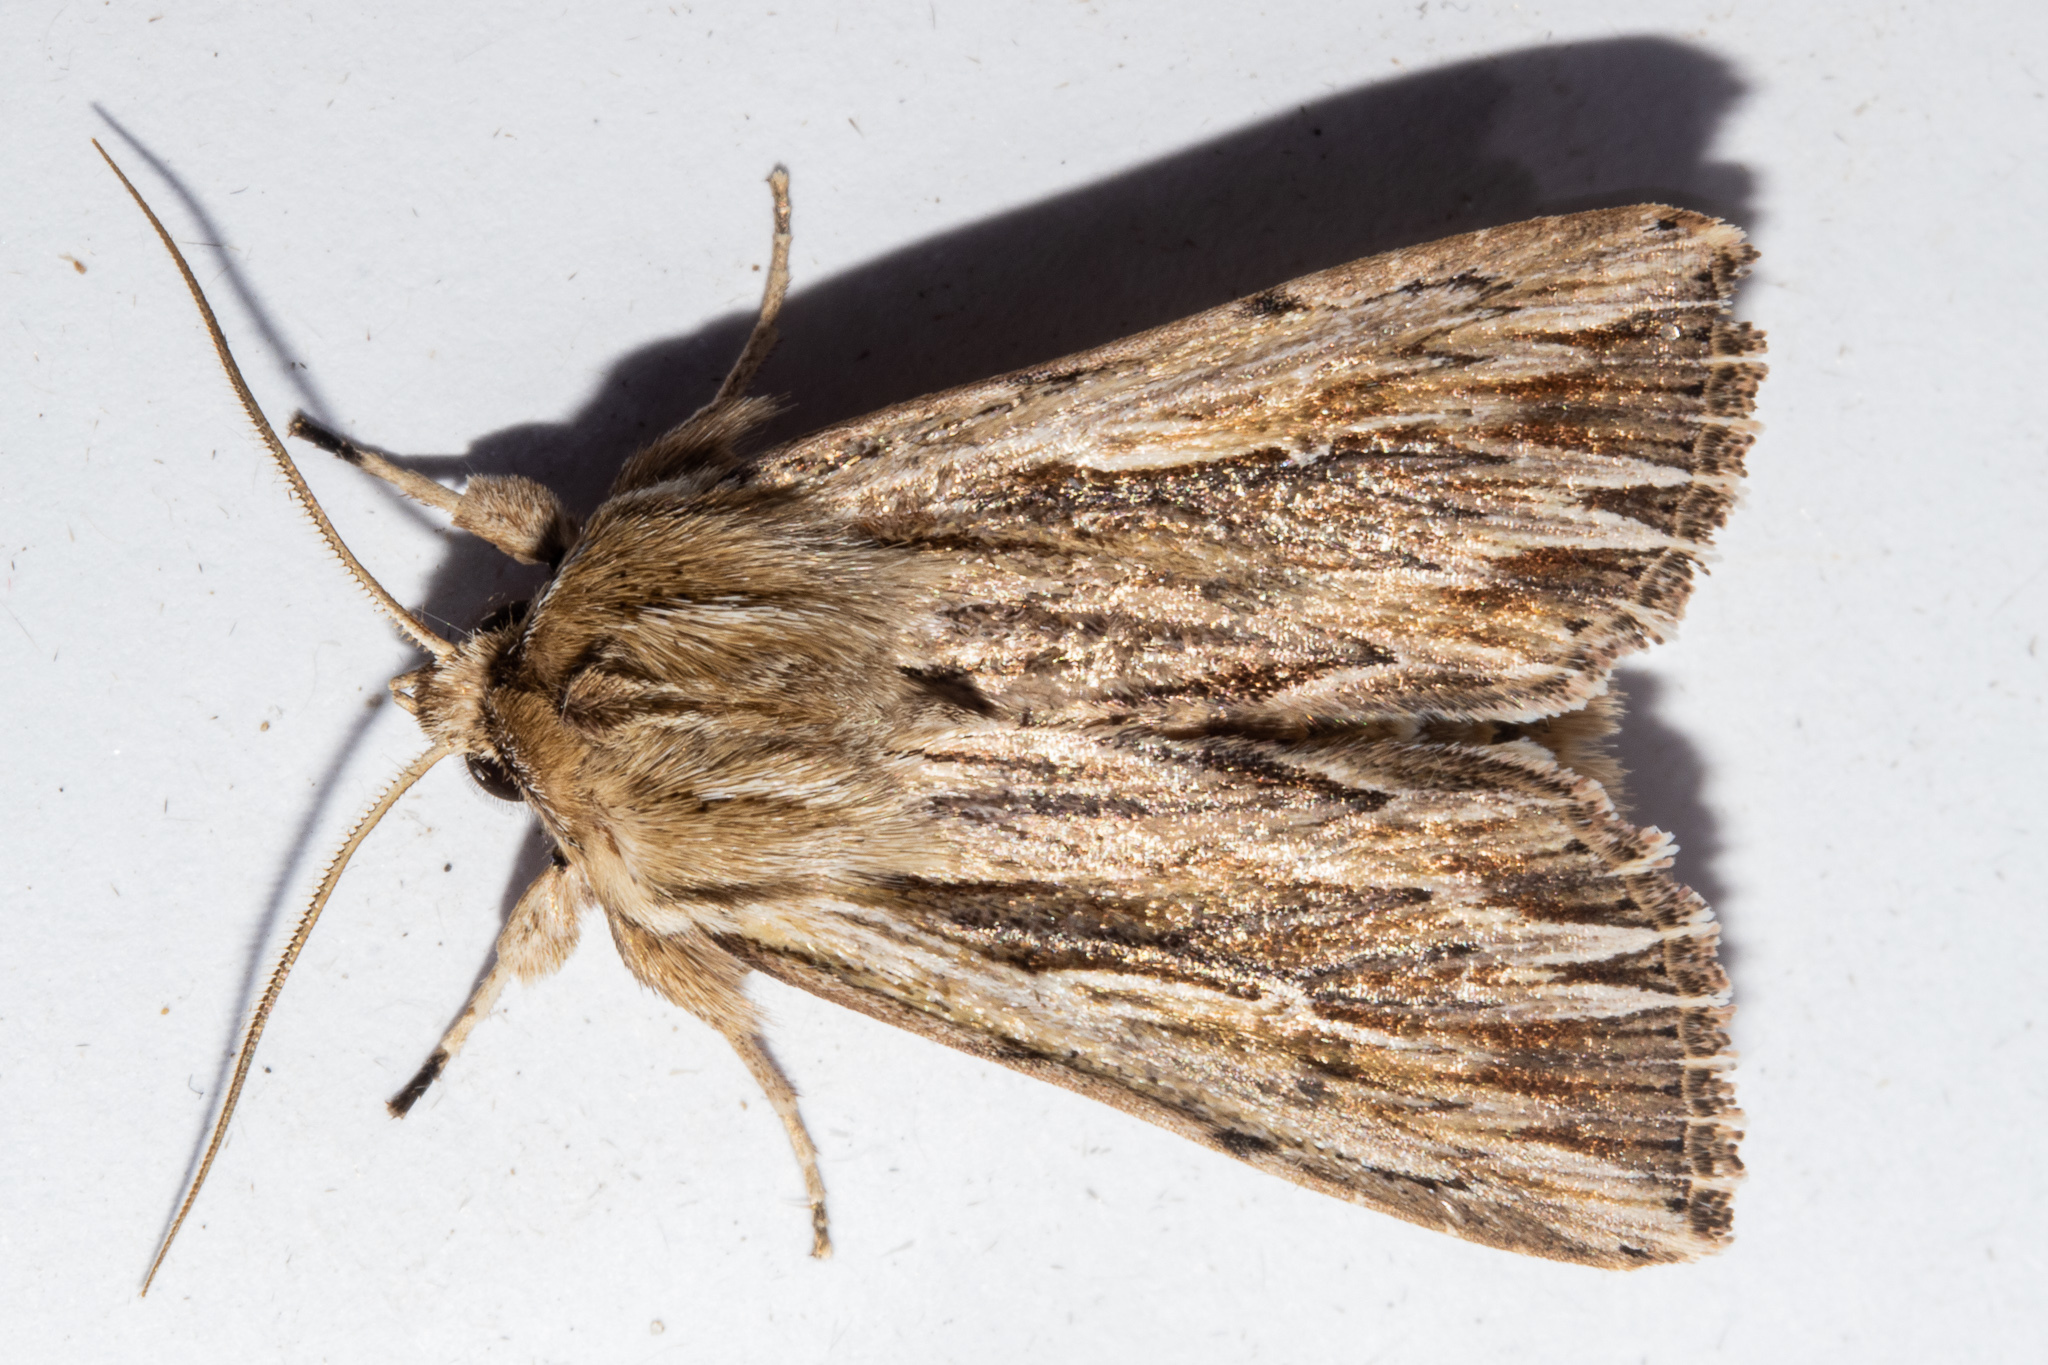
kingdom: Animalia
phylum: Arthropoda
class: Insecta
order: Lepidoptera
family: Noctuidae
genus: Persectania
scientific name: Persectania aversa
